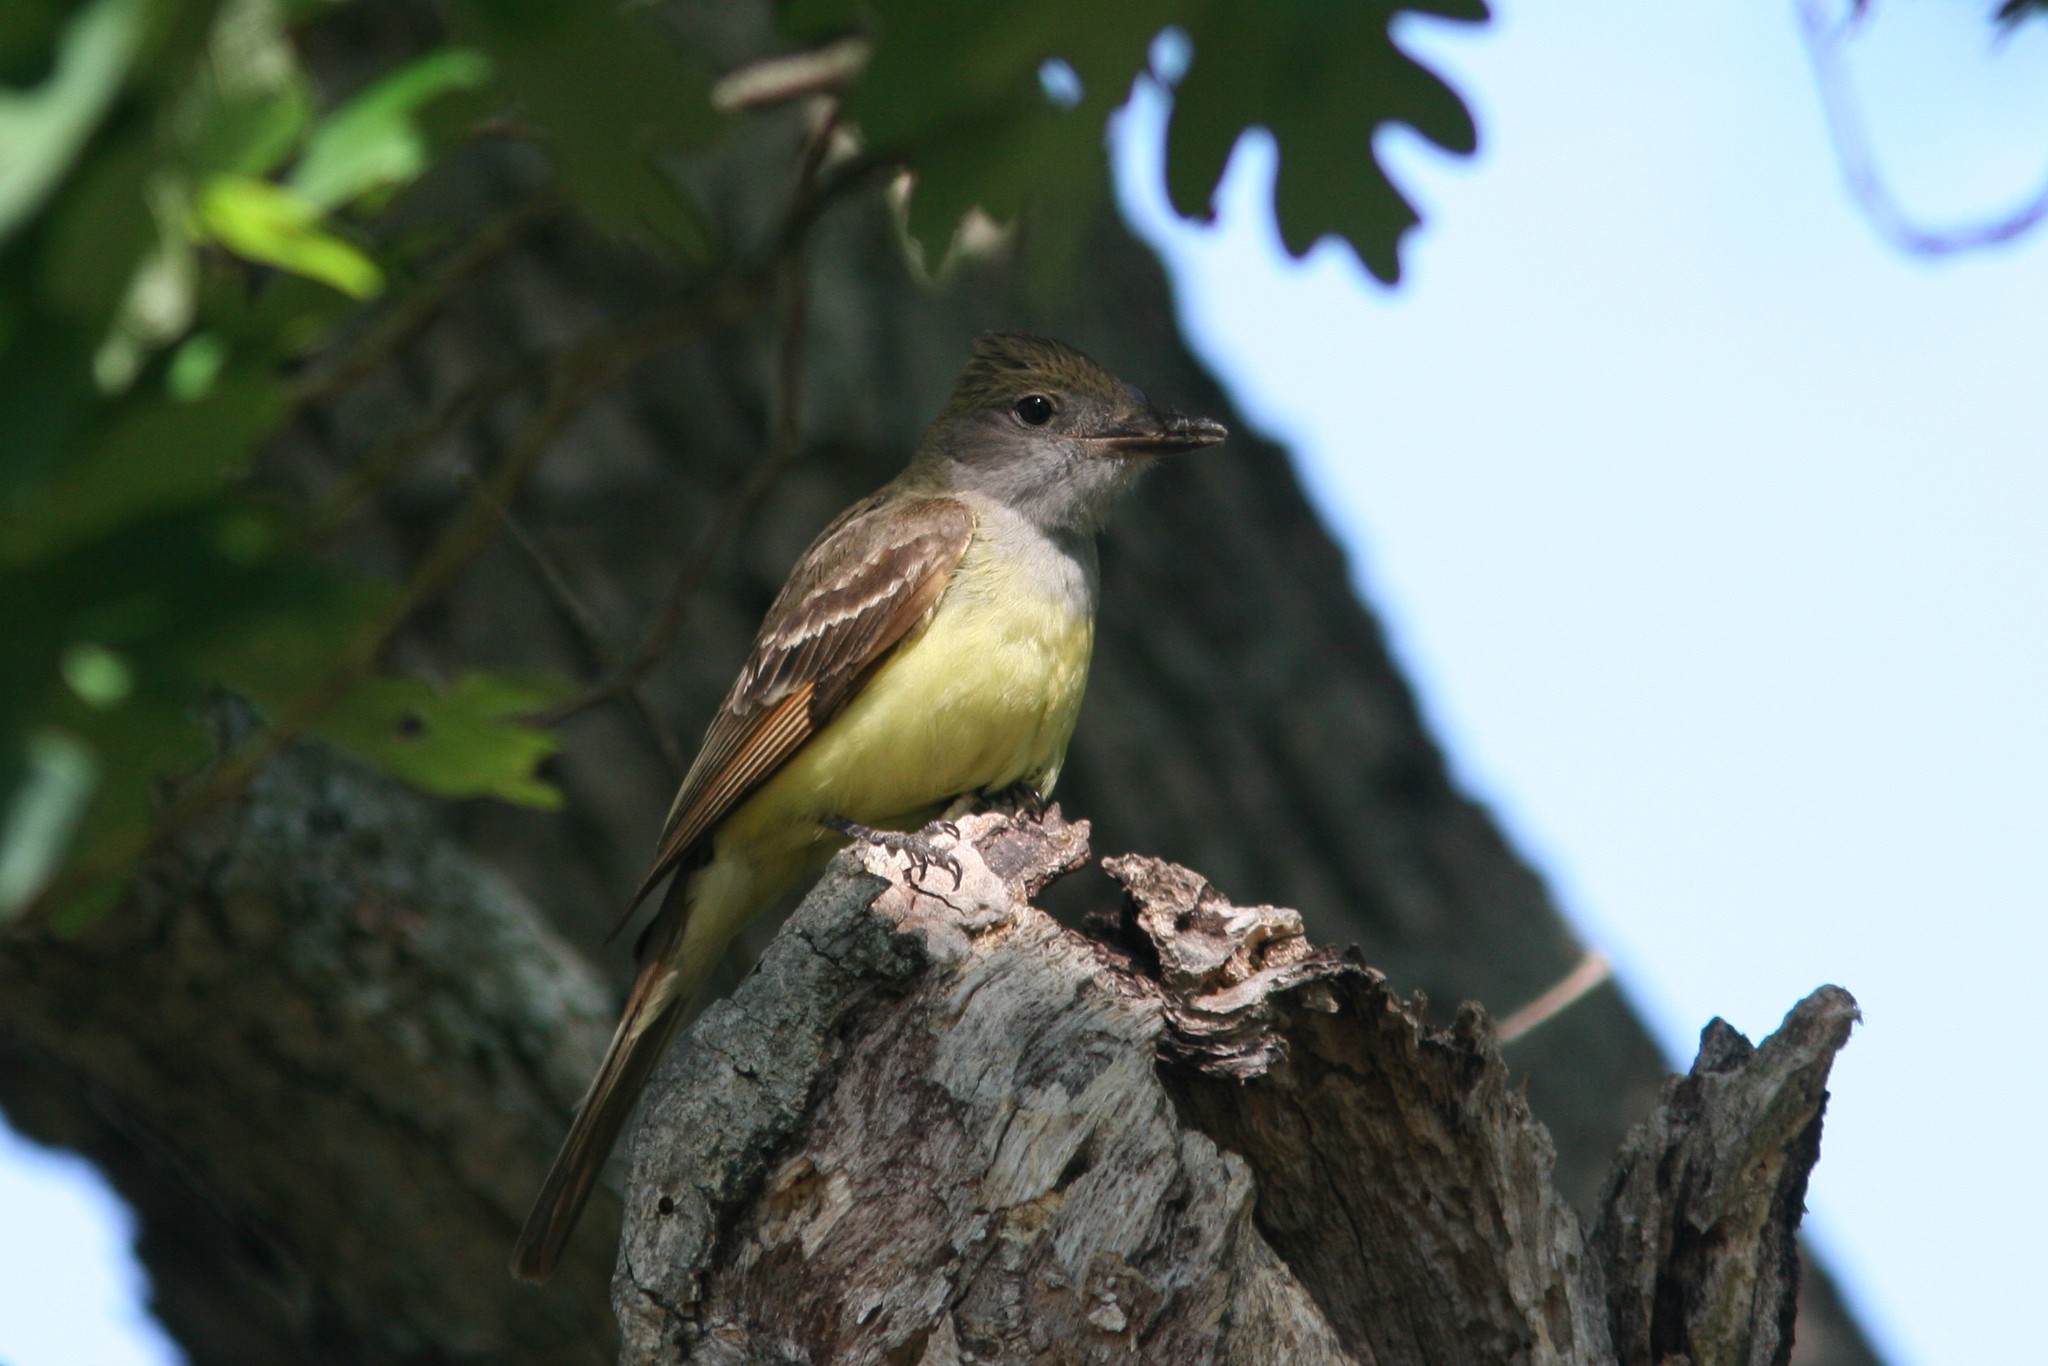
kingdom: Animalia
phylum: Chordata
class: Aves
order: Passeriformes
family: Tyrannidae
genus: Myiarchus
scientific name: Myiarchus crinitus
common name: Great crested flycatcher
